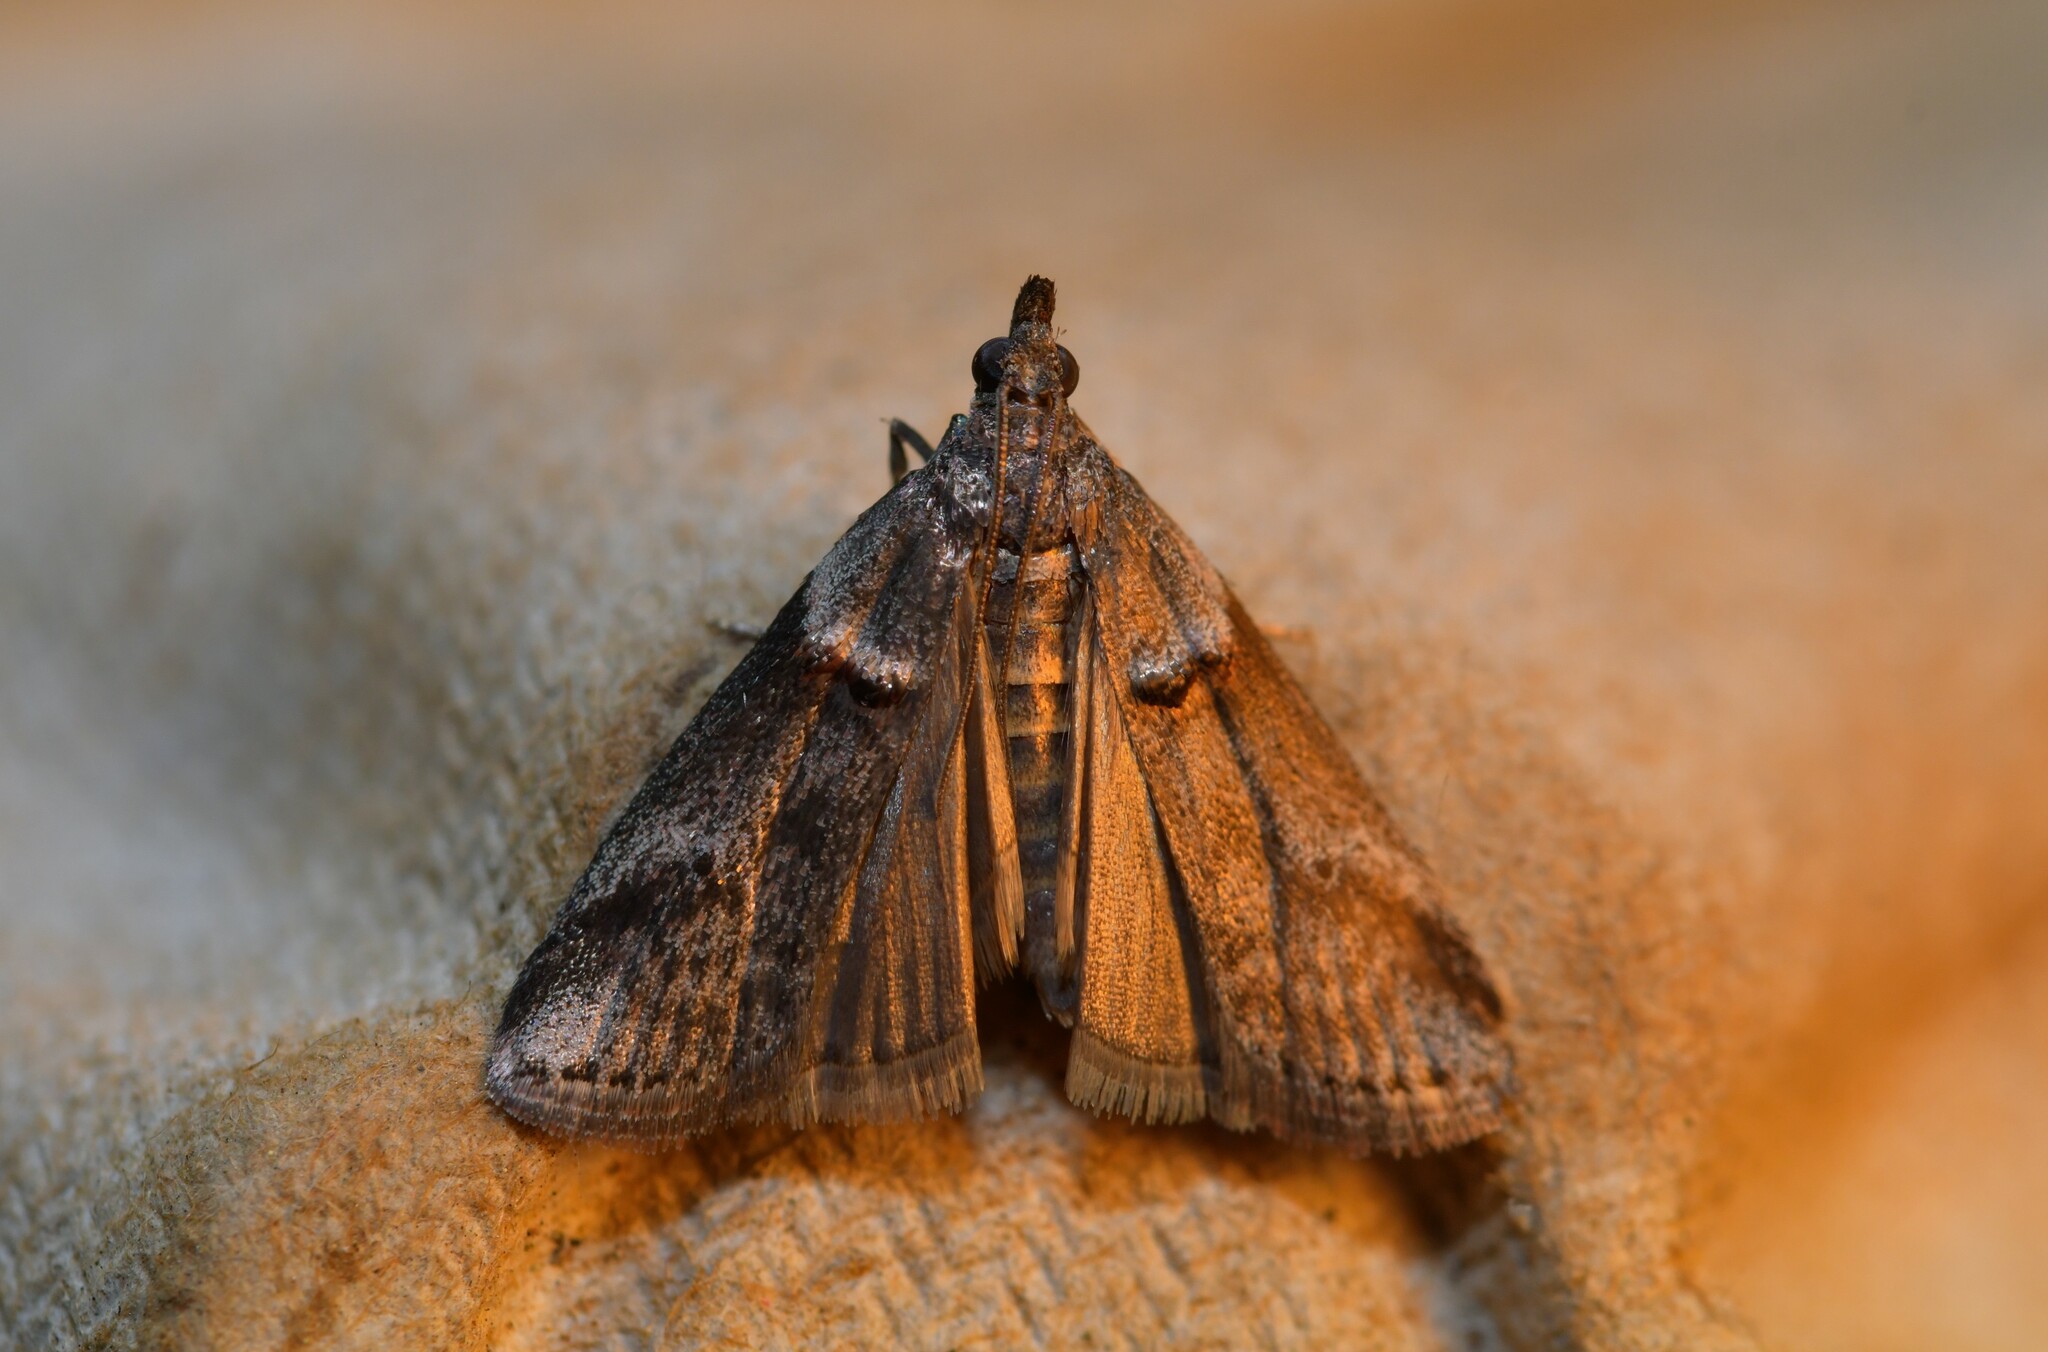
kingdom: Animalia
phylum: Arthropoda
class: Insecta
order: Lepidoptera
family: Pyralidae
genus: Acrobasis
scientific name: Acrobasis obliqua
